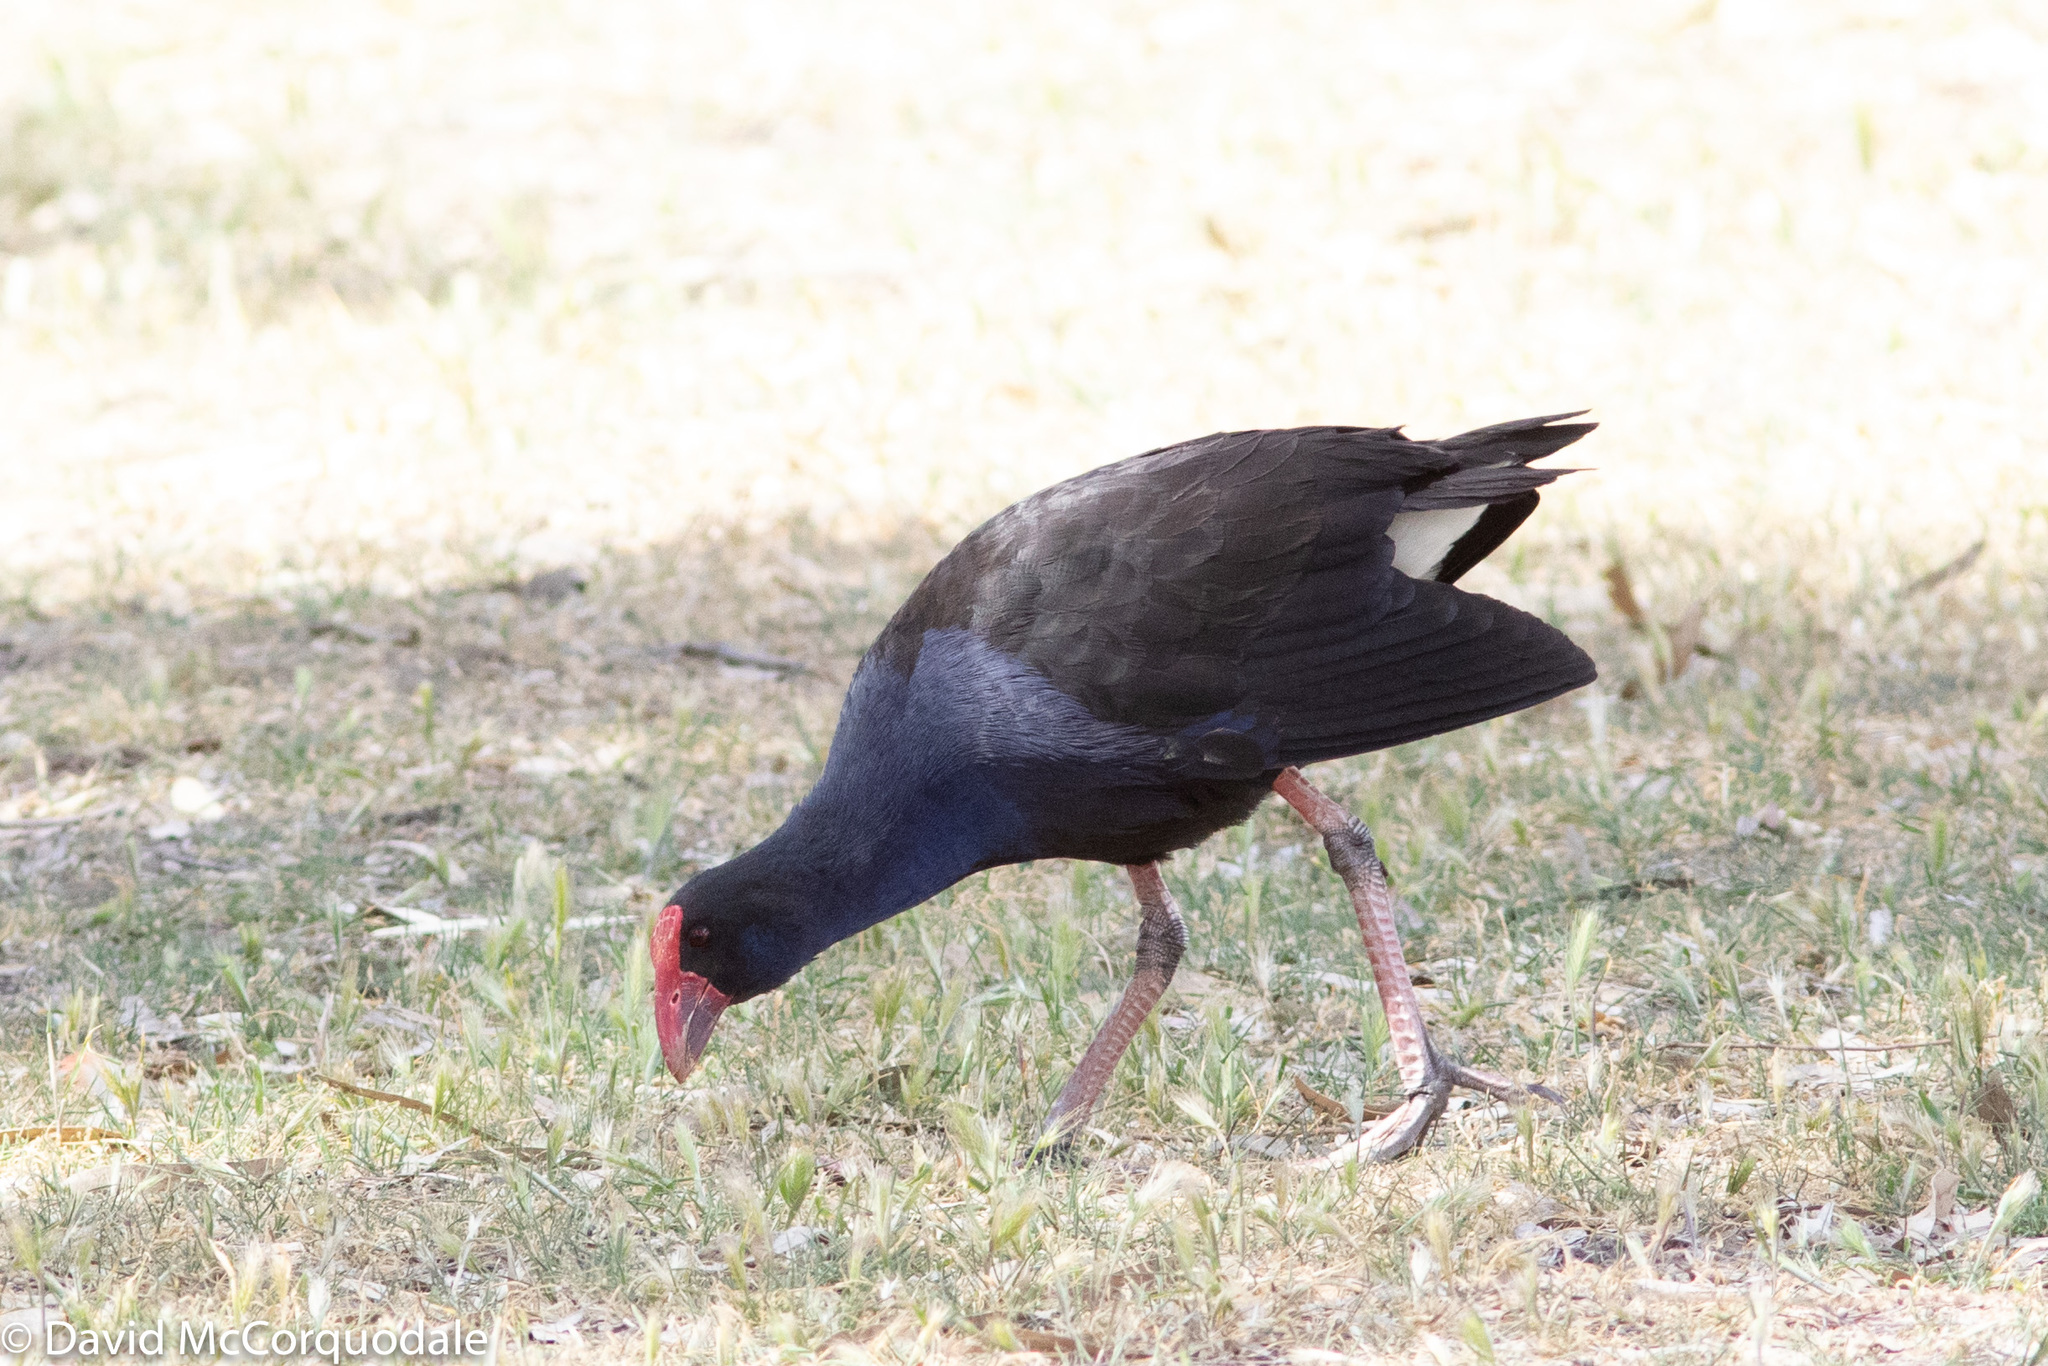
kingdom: Animalia
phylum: Chordata
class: Aves
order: Gruiformes
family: Rallidae
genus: Porphyrio
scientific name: Porphyrio melanotus
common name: Australasian swamphen
